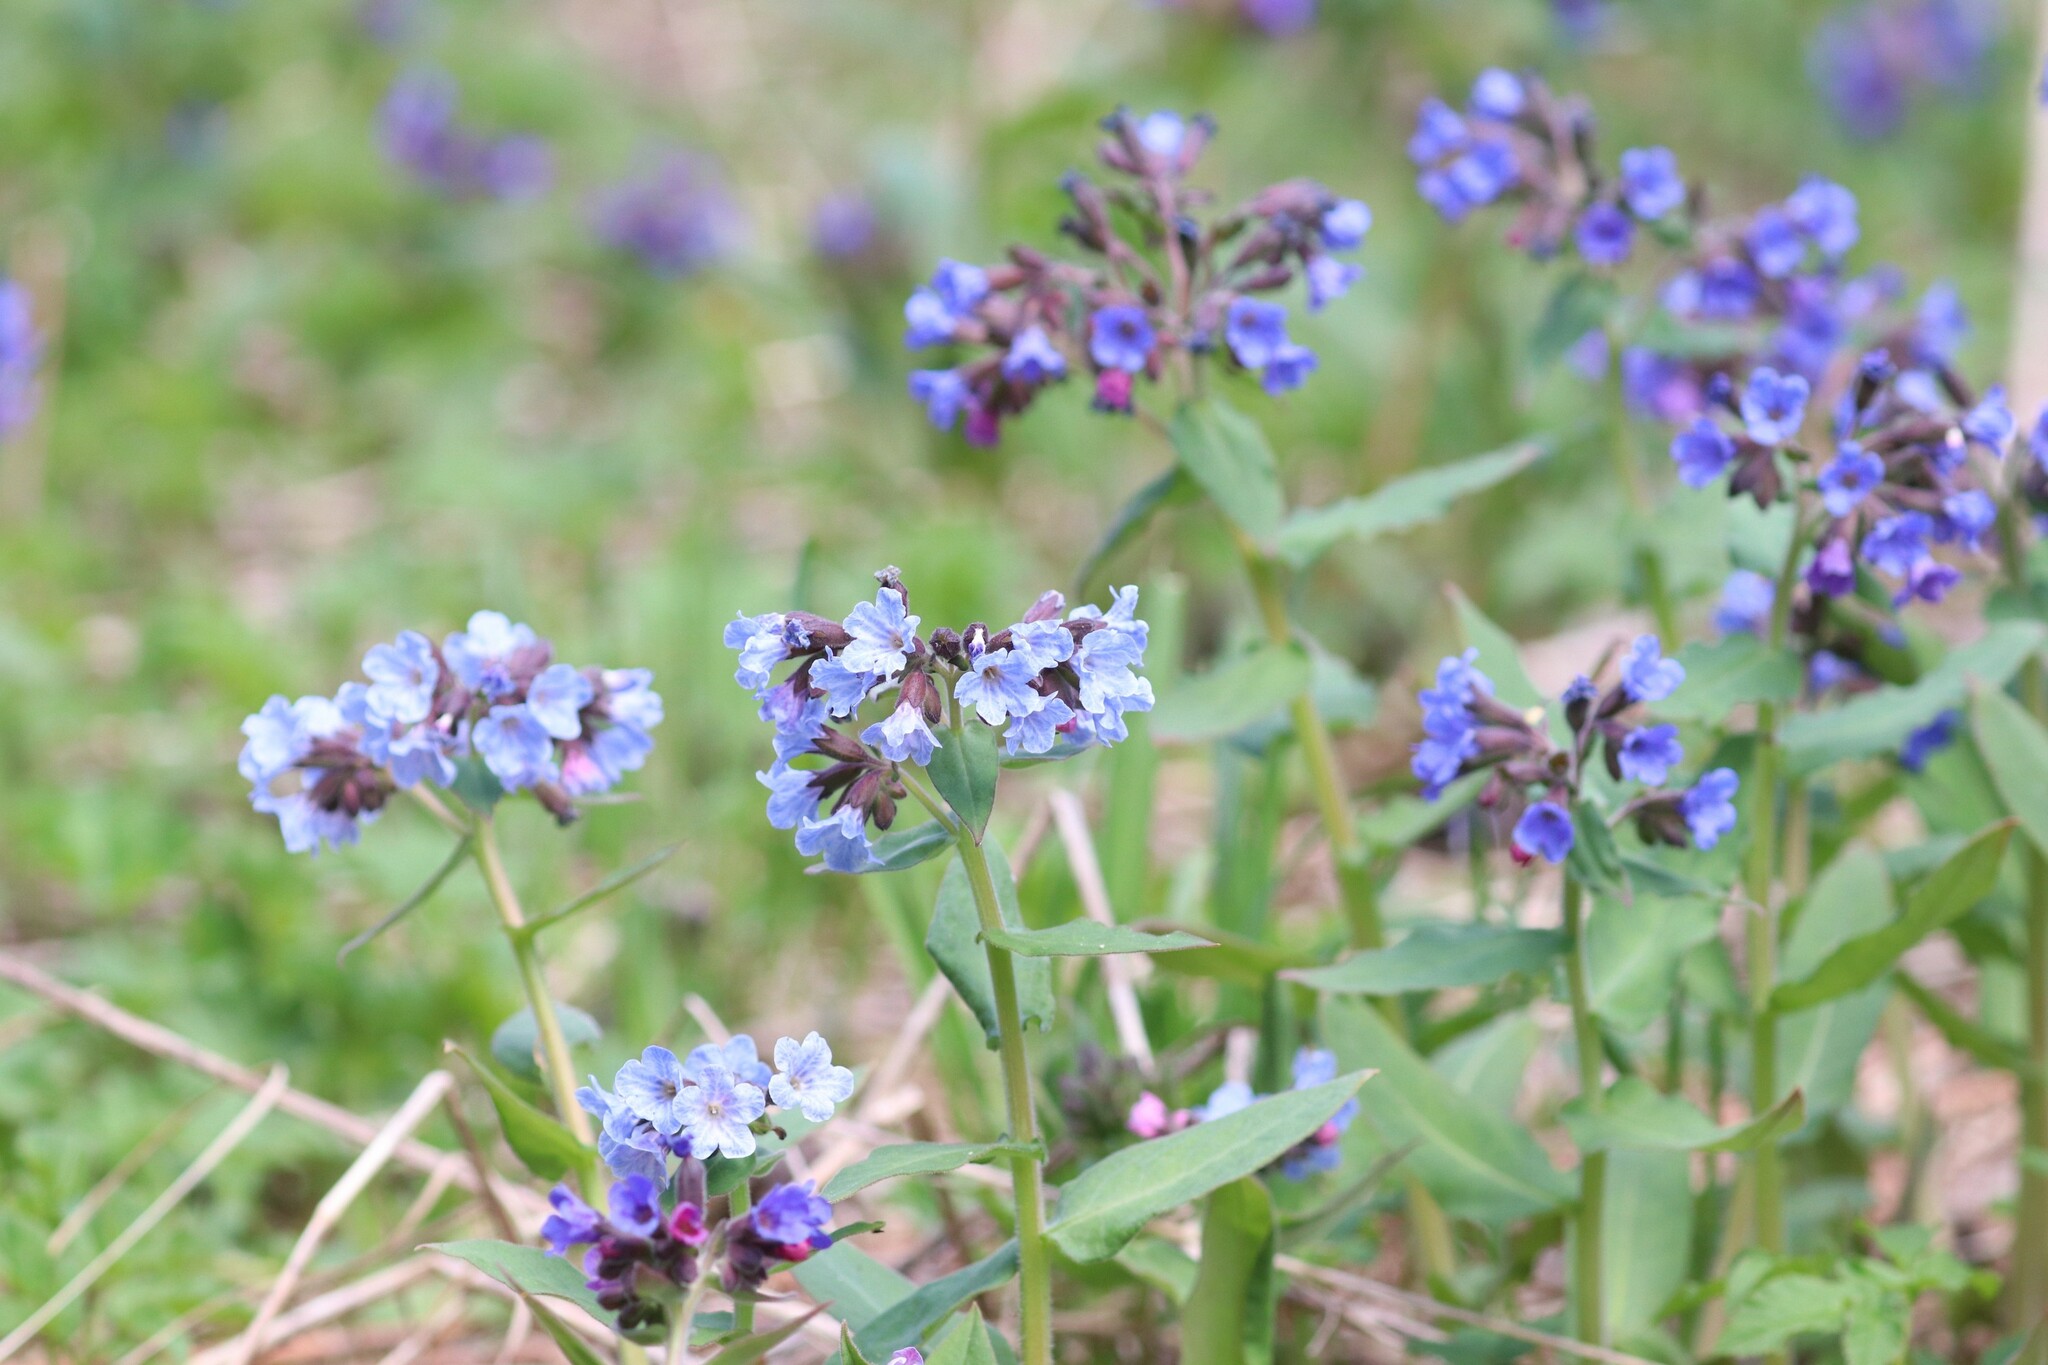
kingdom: Plantae
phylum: Tracheophyta
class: Magnoliopsida
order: Boraginales
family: Boraginaceae
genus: Pulmonaria
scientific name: Pulmonaria mollis
